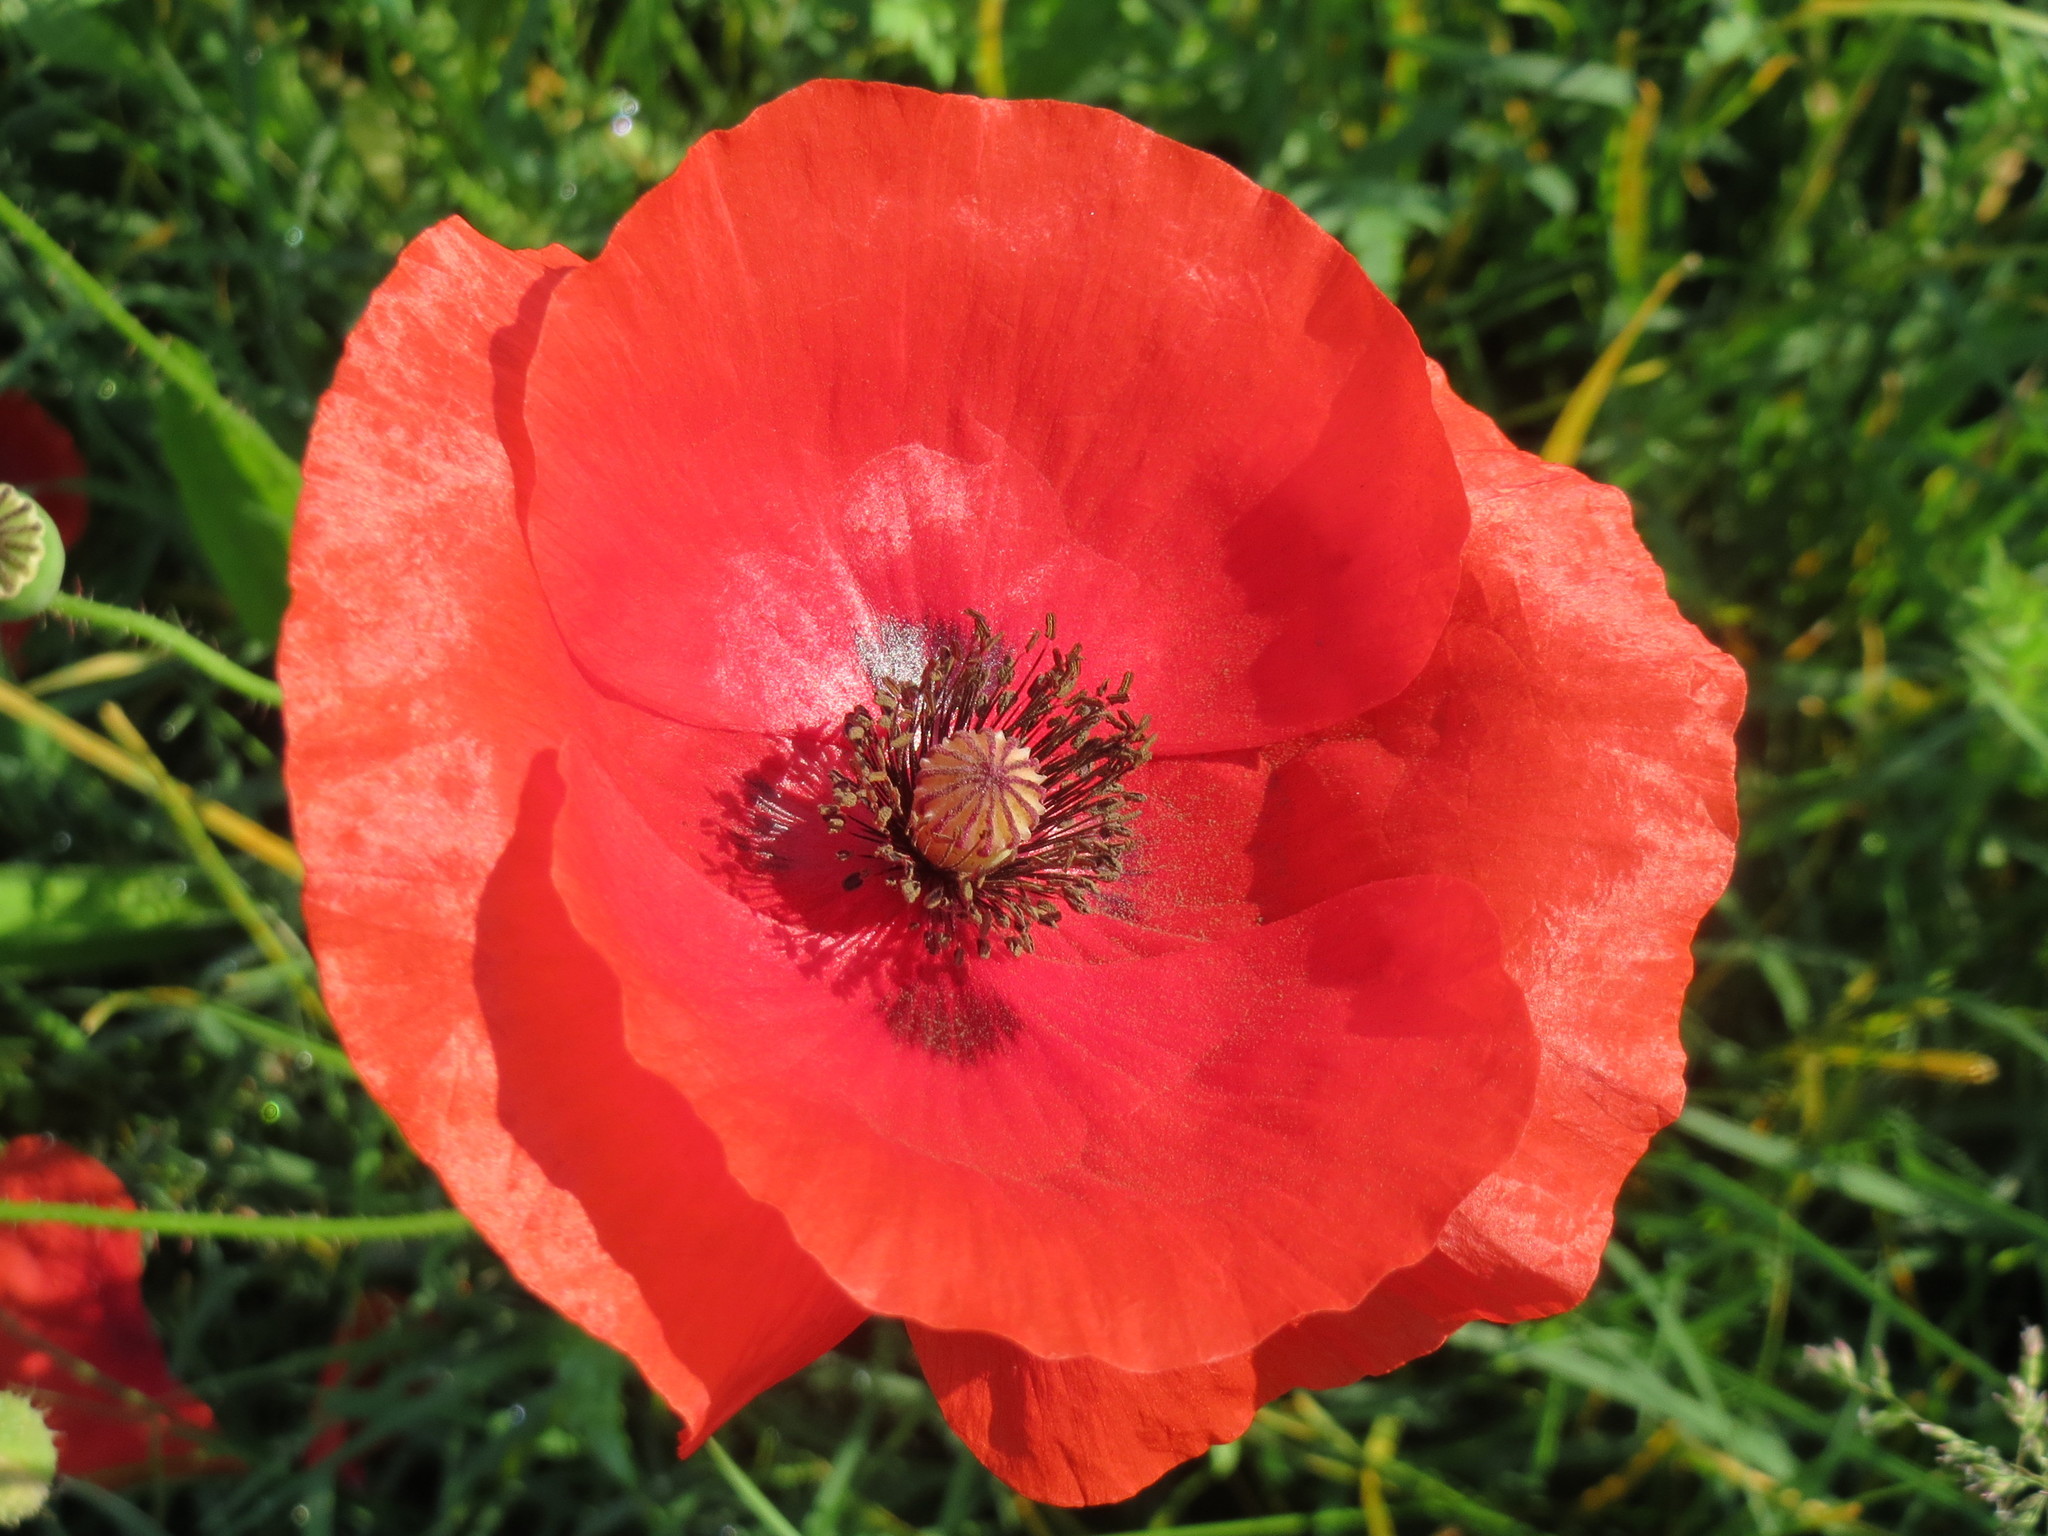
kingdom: Plantae
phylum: Tracheophyta
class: Magnoliopsida
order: Ranunculales
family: Papaveraceae
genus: Papaver
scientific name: Papaver rhoeas
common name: Corn poppy
